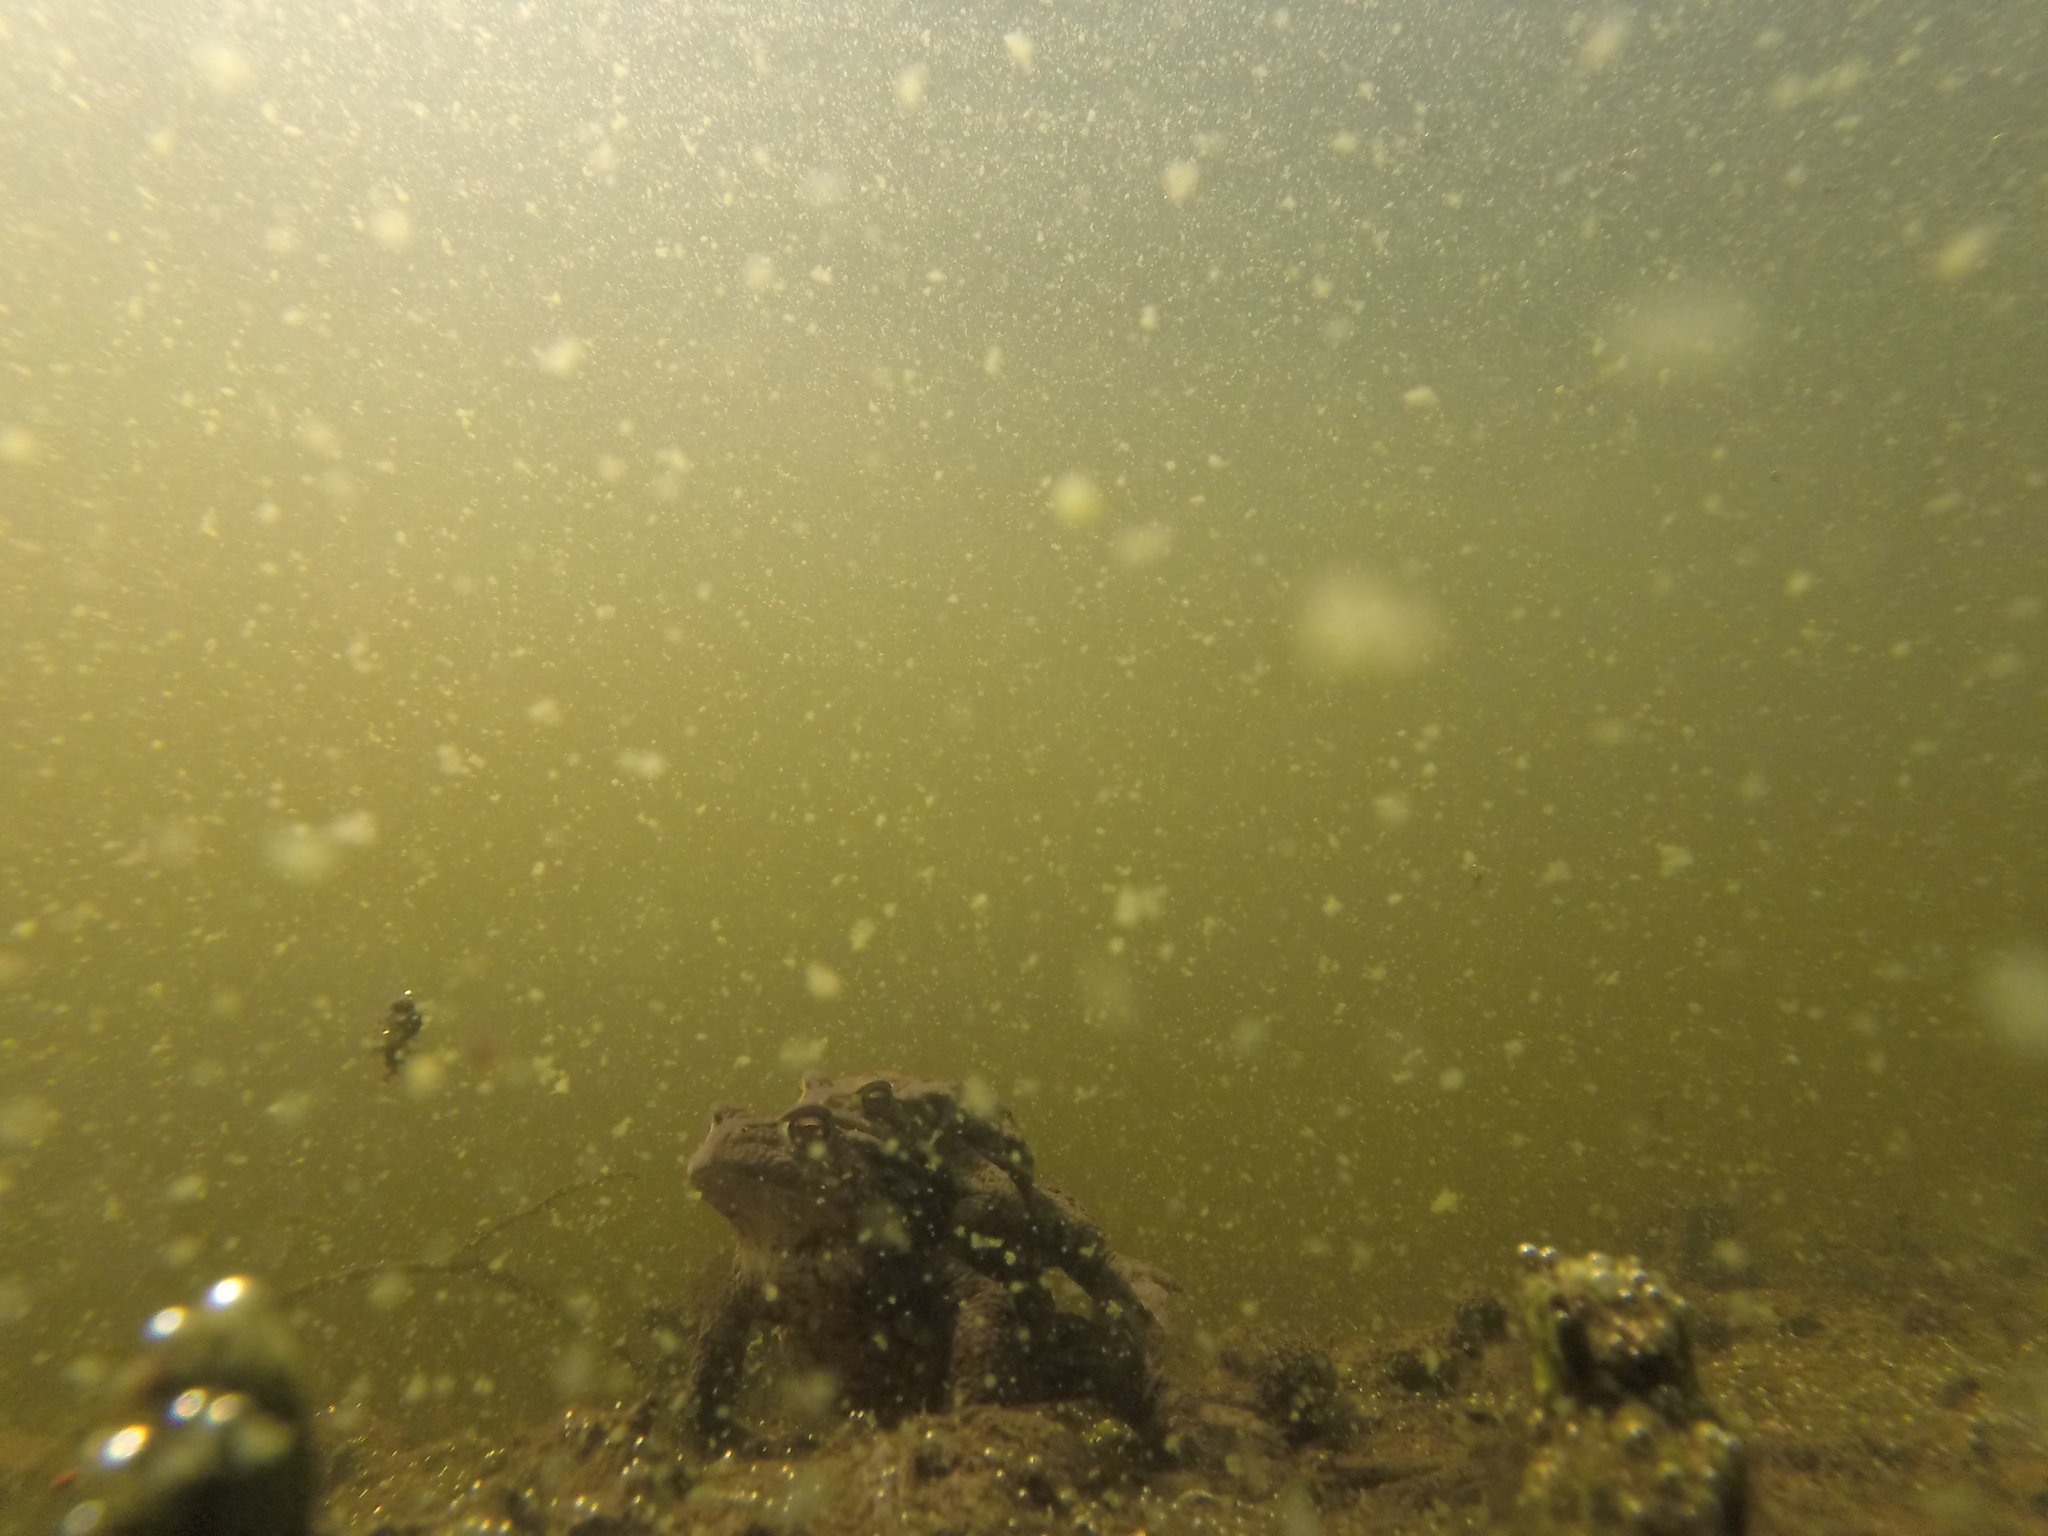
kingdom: Animalia
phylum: Chordata
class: Amphibia
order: Anura
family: Bufonidae
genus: Bufo
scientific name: Bufo bufo
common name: Common toad
